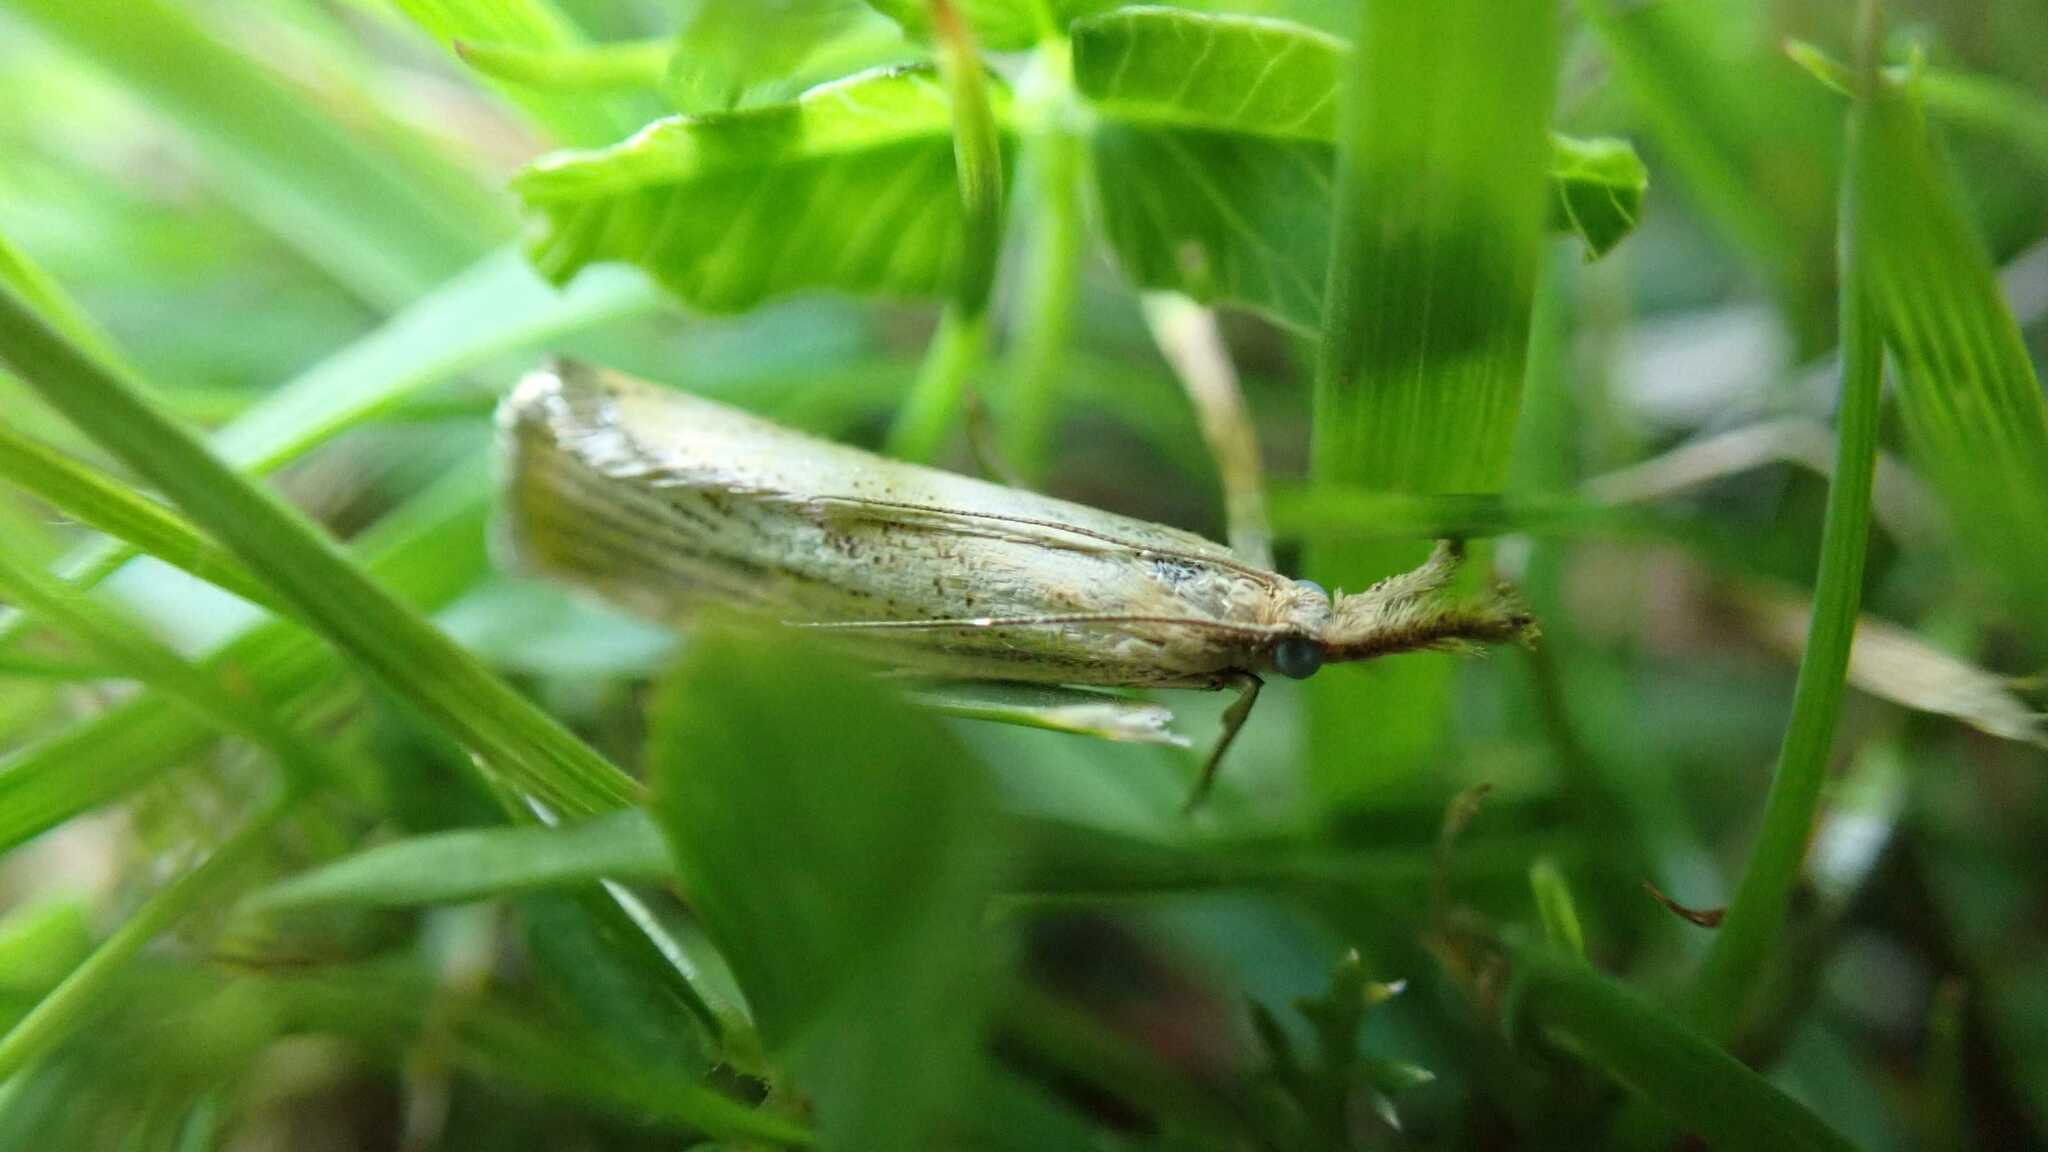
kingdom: Animalia
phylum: Arthropoda
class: Insecta
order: Lepidoptera
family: Crambidae
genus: Agriphila
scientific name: Agriphila straminella
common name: Straw grass-veneer
